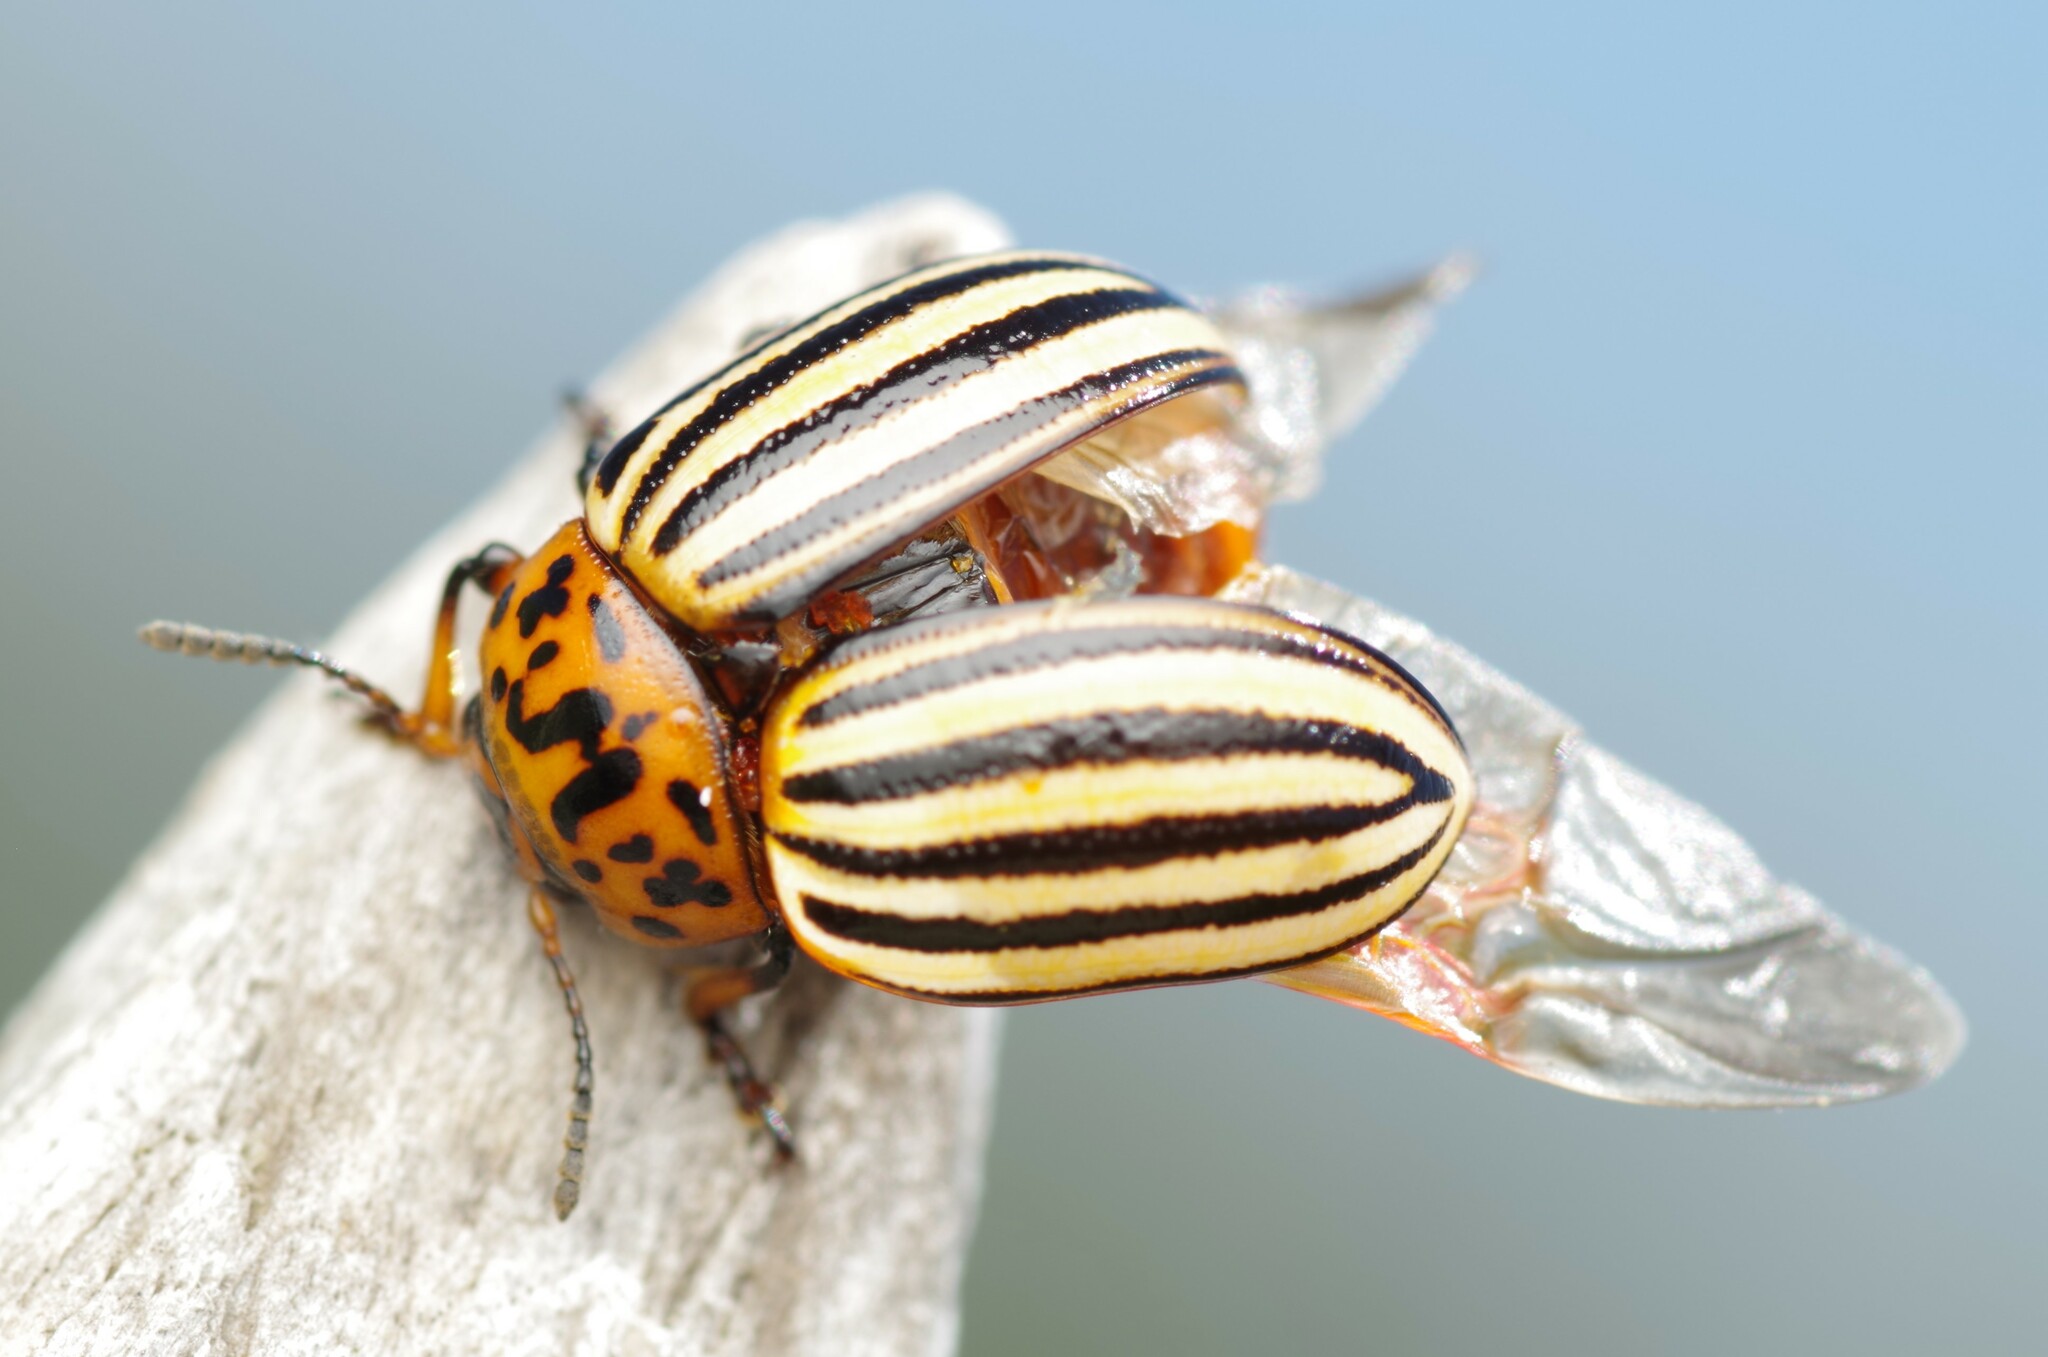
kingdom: Animalia
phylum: Arthropoda
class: Insecta
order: Coleoptera
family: Chrysomelidae
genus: Leptinotarsa
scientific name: Leptinotarsa decemlineata
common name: Colorado potato beetle
